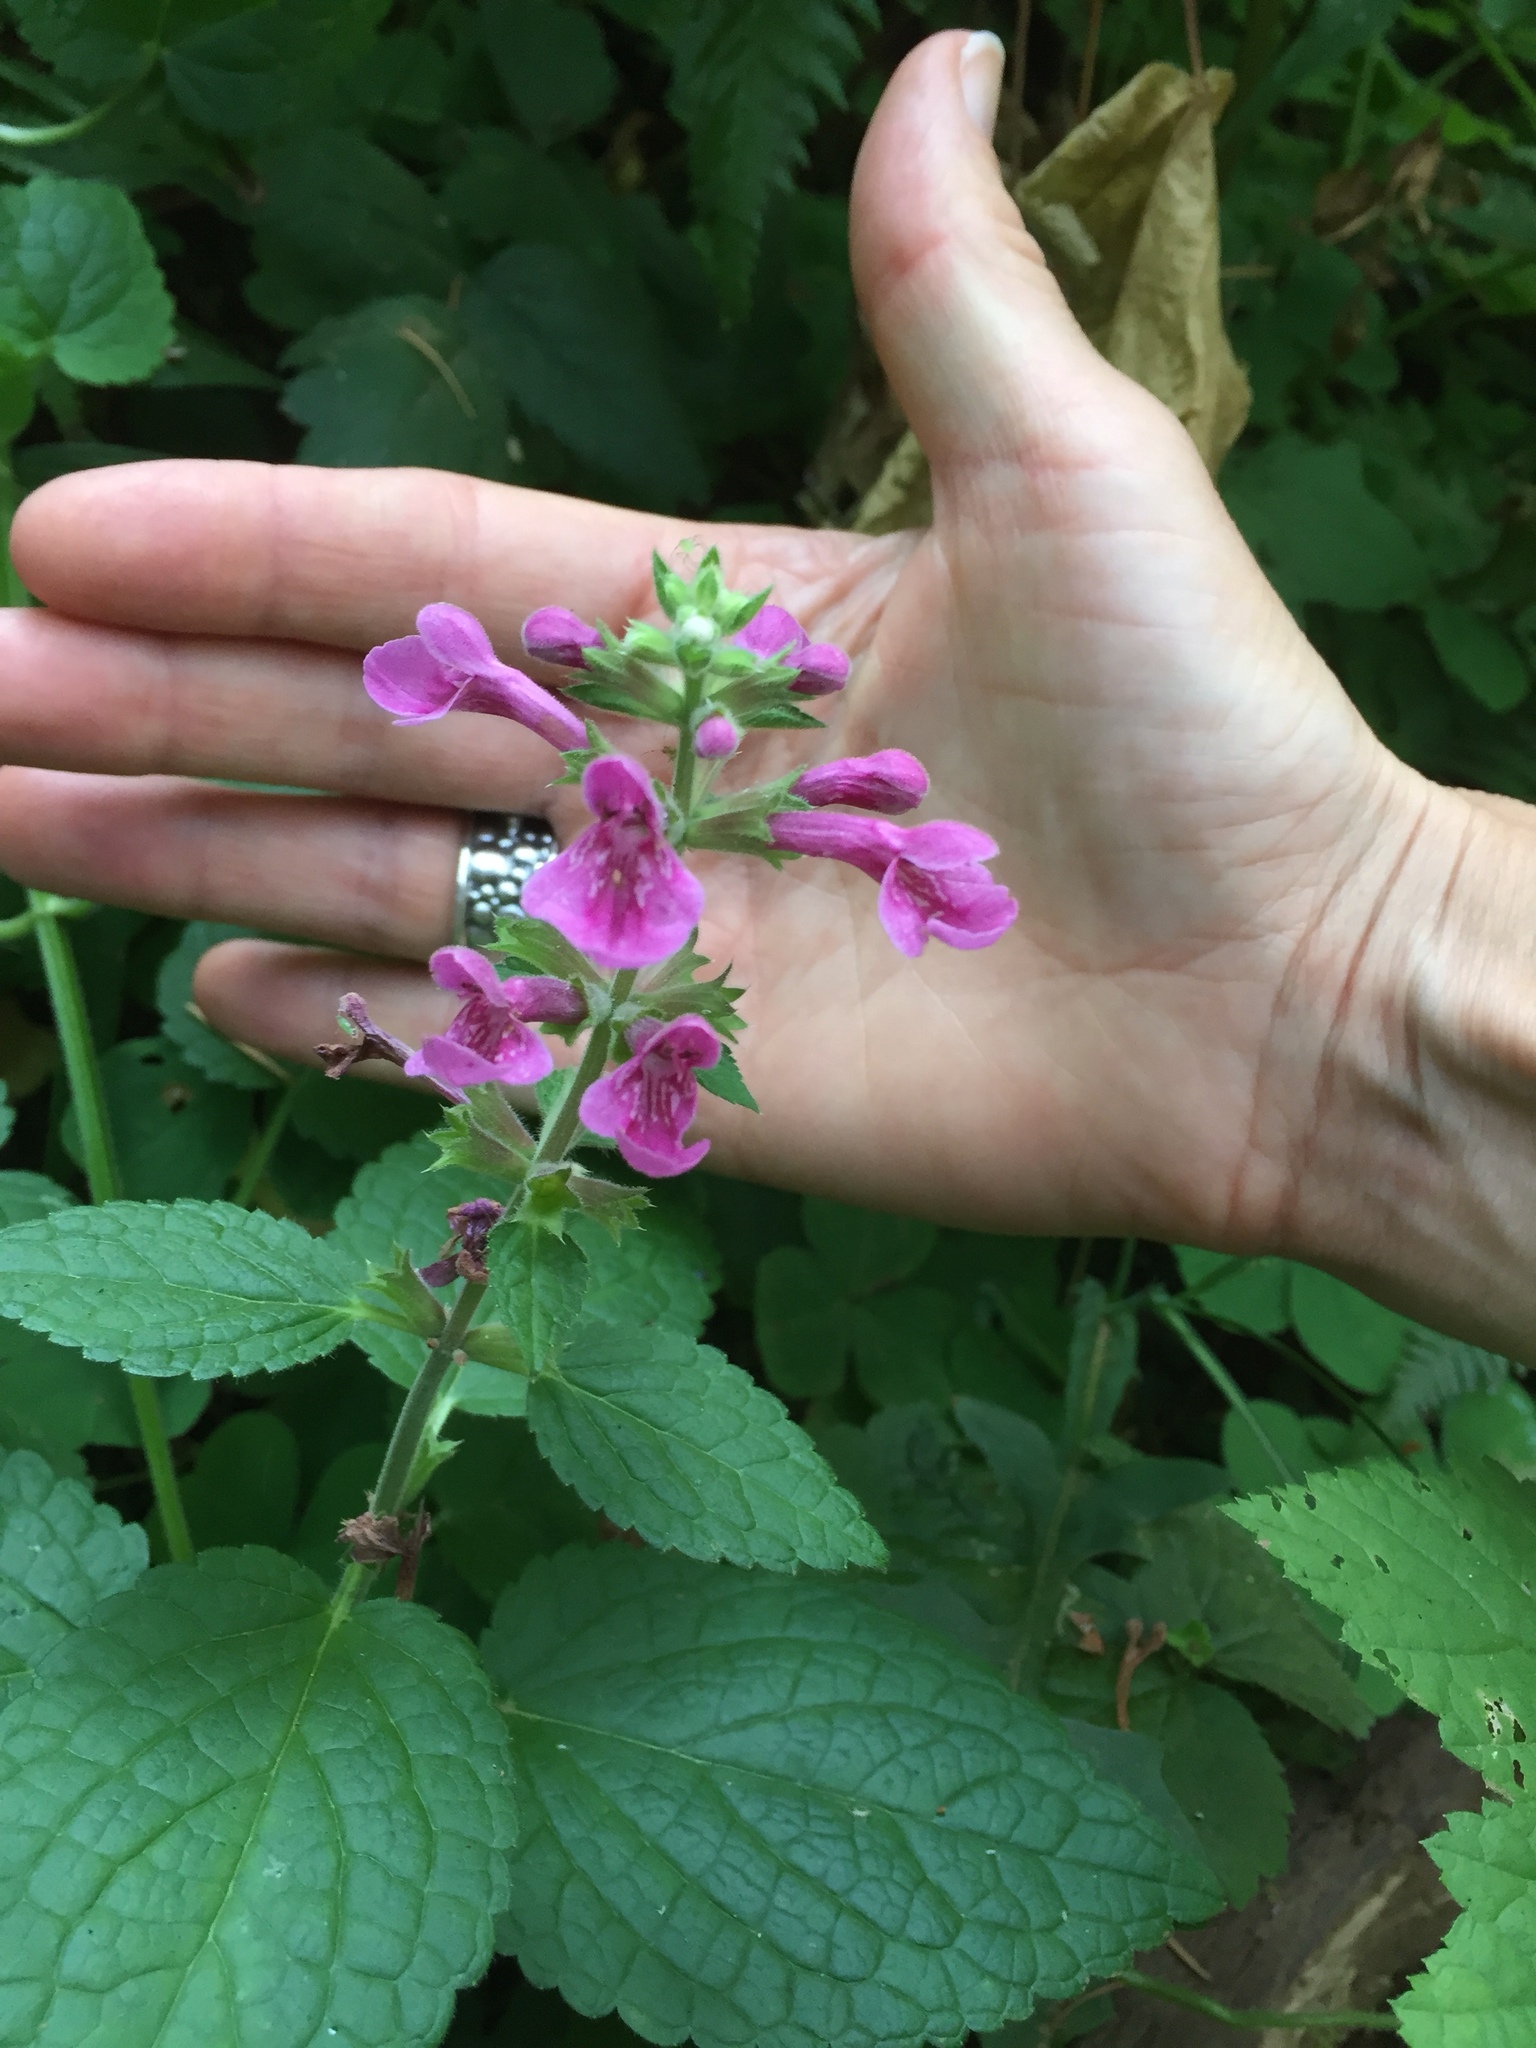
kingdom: Plantae
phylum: Tracheophyta
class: Magnoliopsida
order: Lamiales
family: Lamiaceae
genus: Stachys
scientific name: Stachys chamissonis
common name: Coastal hedge-nettle
